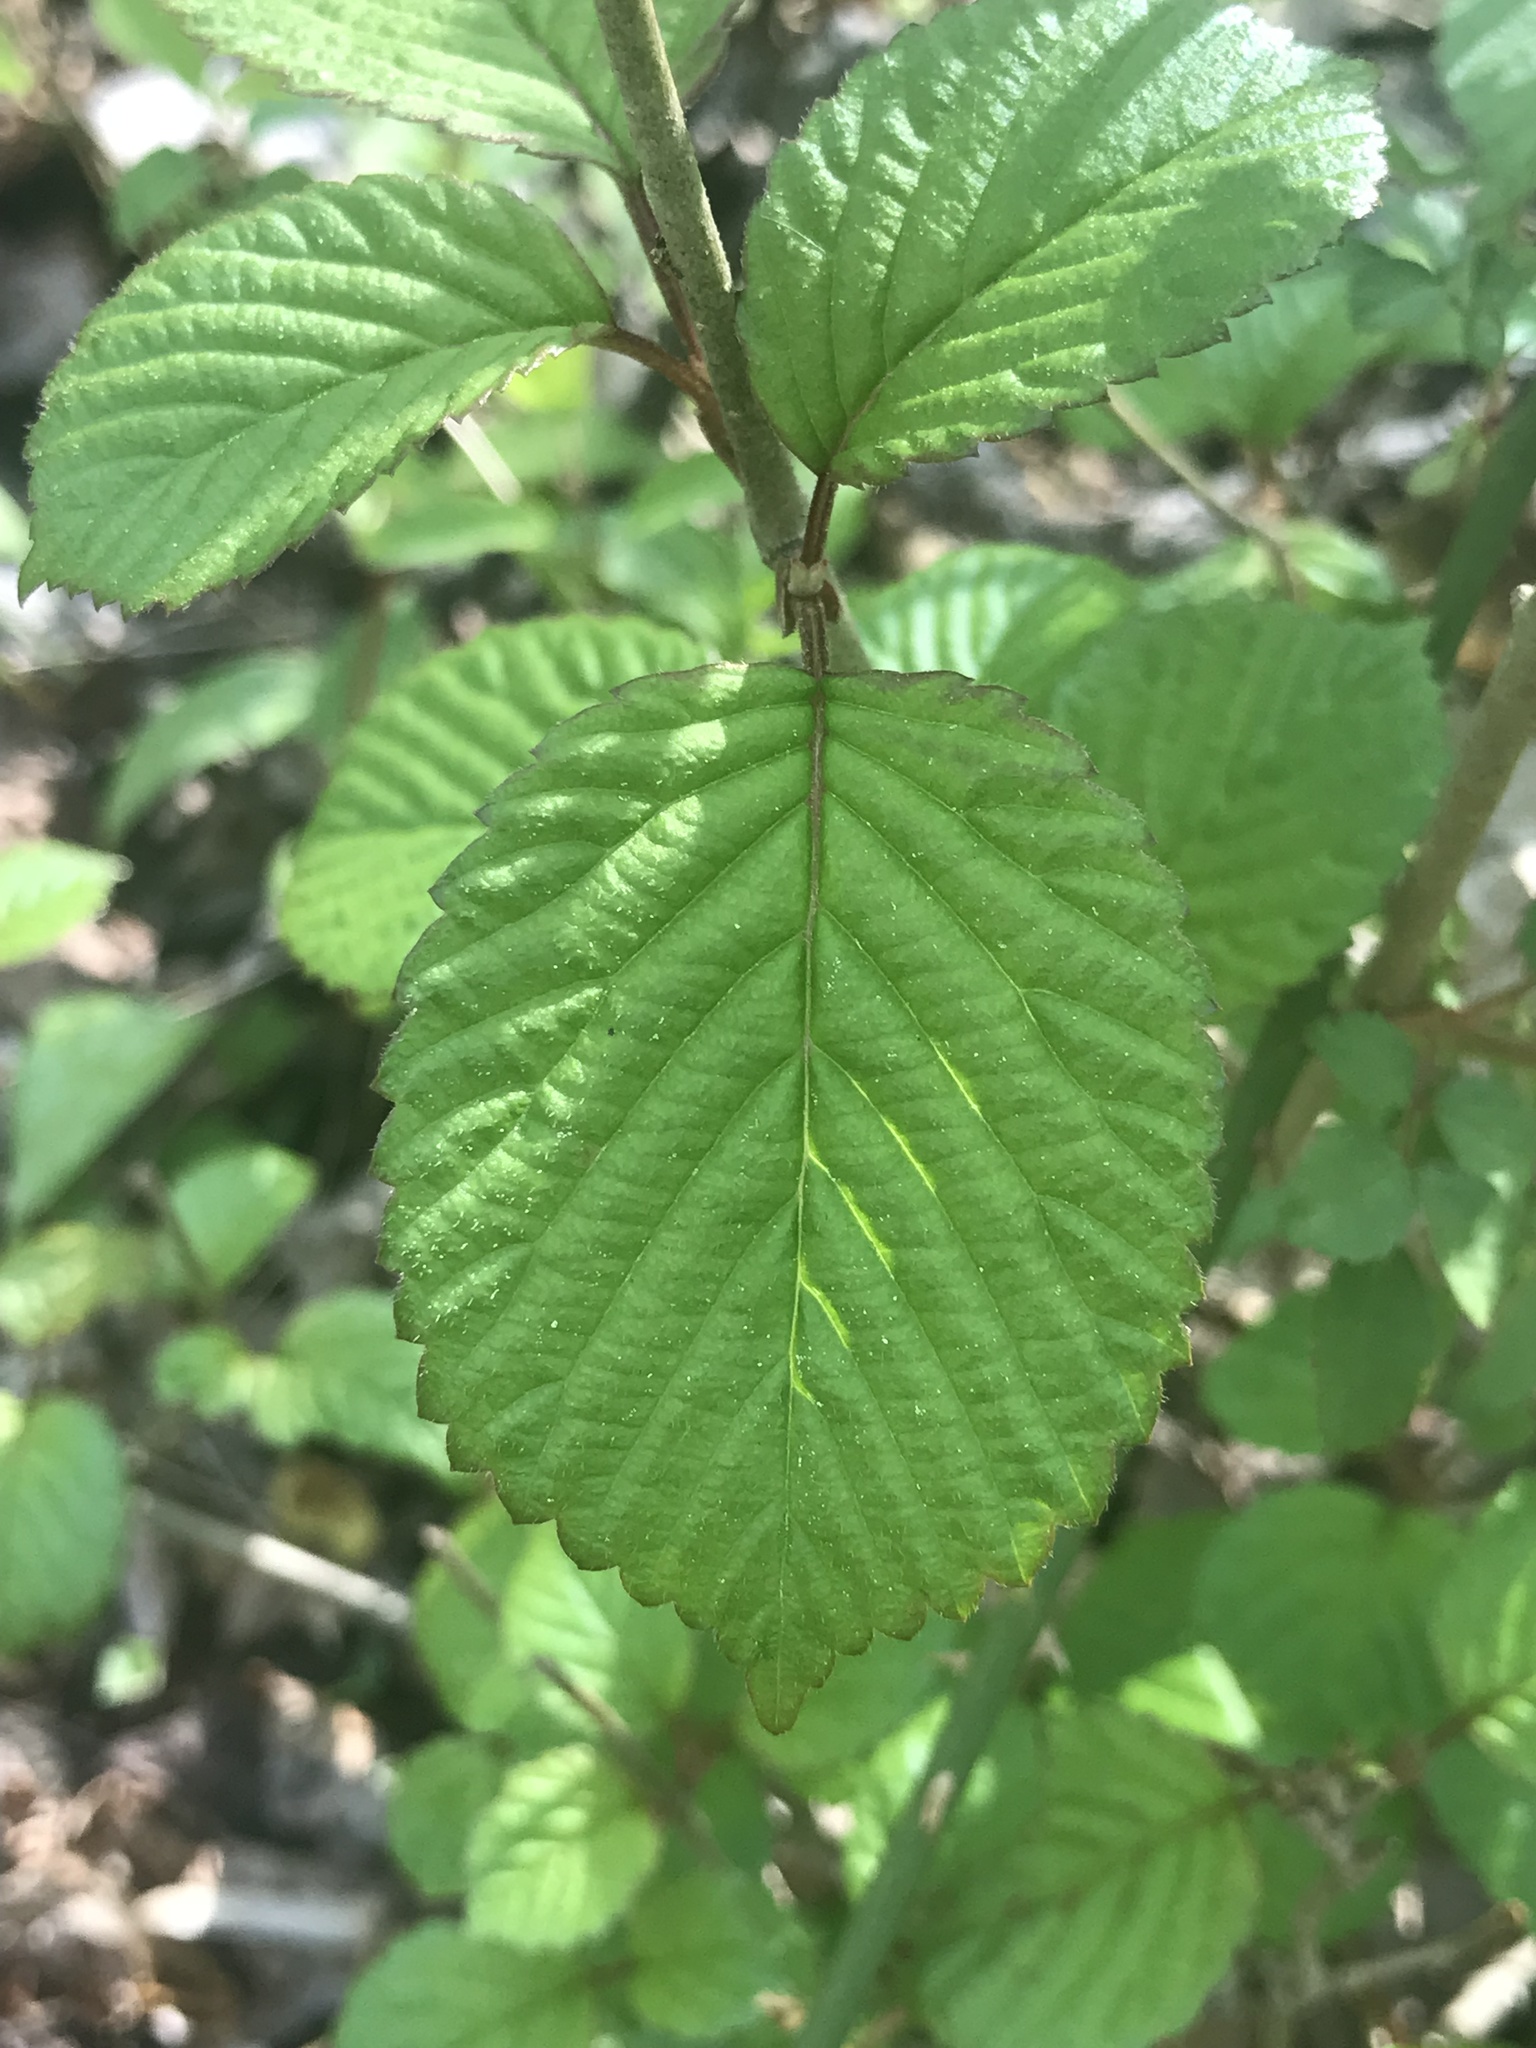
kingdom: Plantae
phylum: Tracheophyta
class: Magnoliopsida
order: Dipsacales
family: Viburnaceae
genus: Viburnum
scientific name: Viburnum plicatum
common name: Japanese snowball
